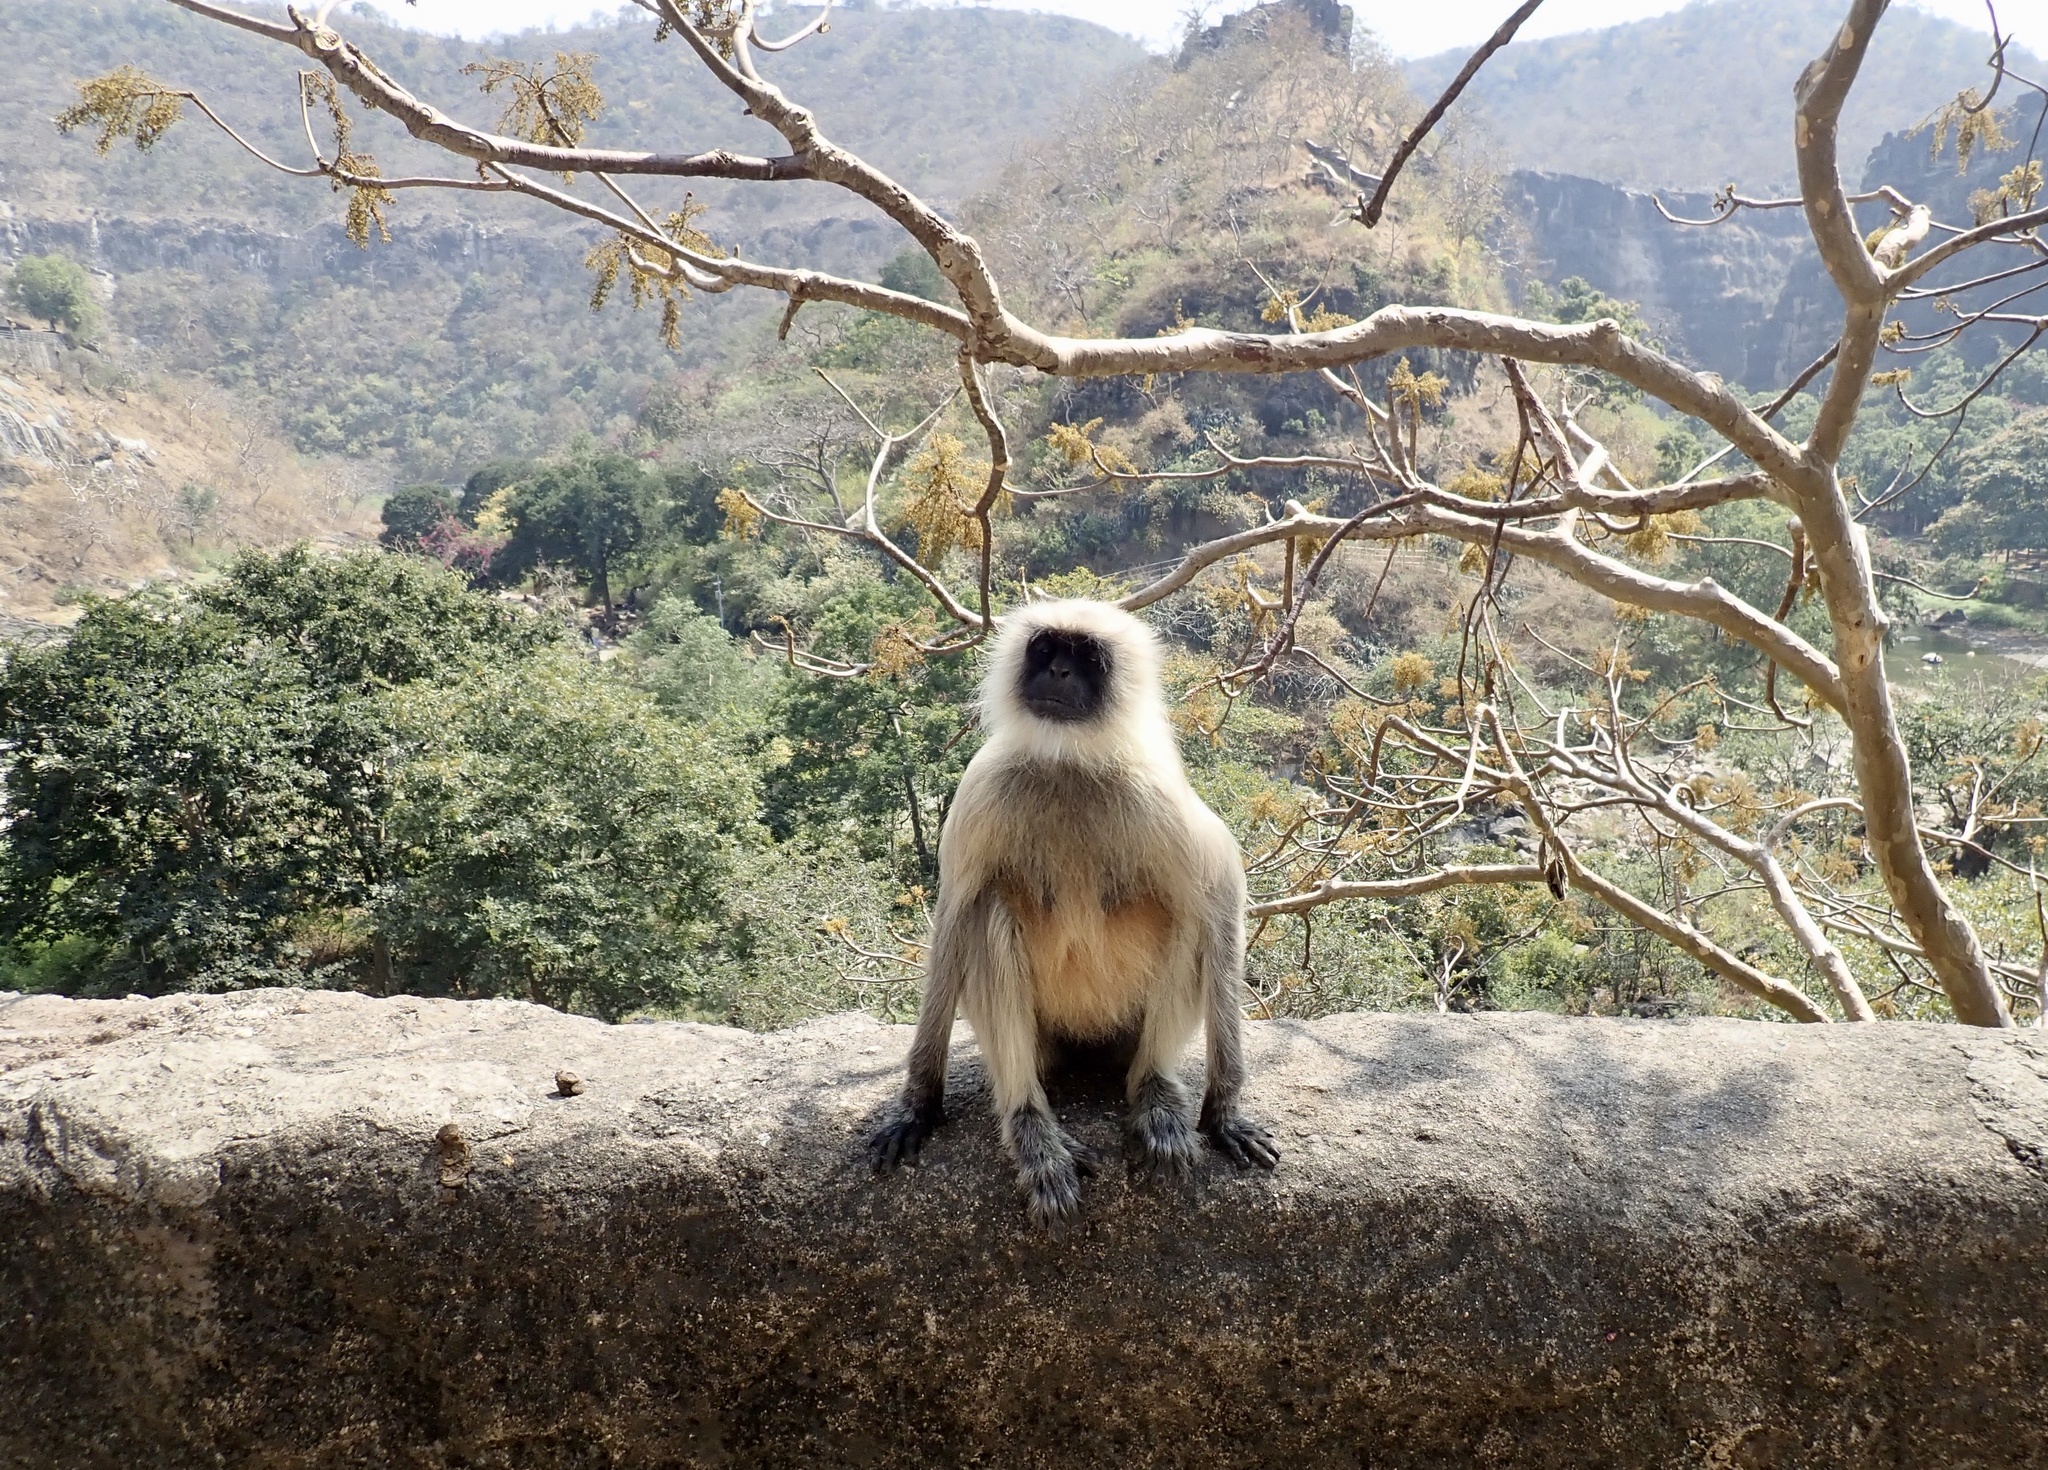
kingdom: Animalia
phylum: Chordata
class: Mammalia
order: Primates
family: Cercopithecidae
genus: Semnopithecus
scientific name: Semnopithecus hypoleucos
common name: Black-footed gray langur
